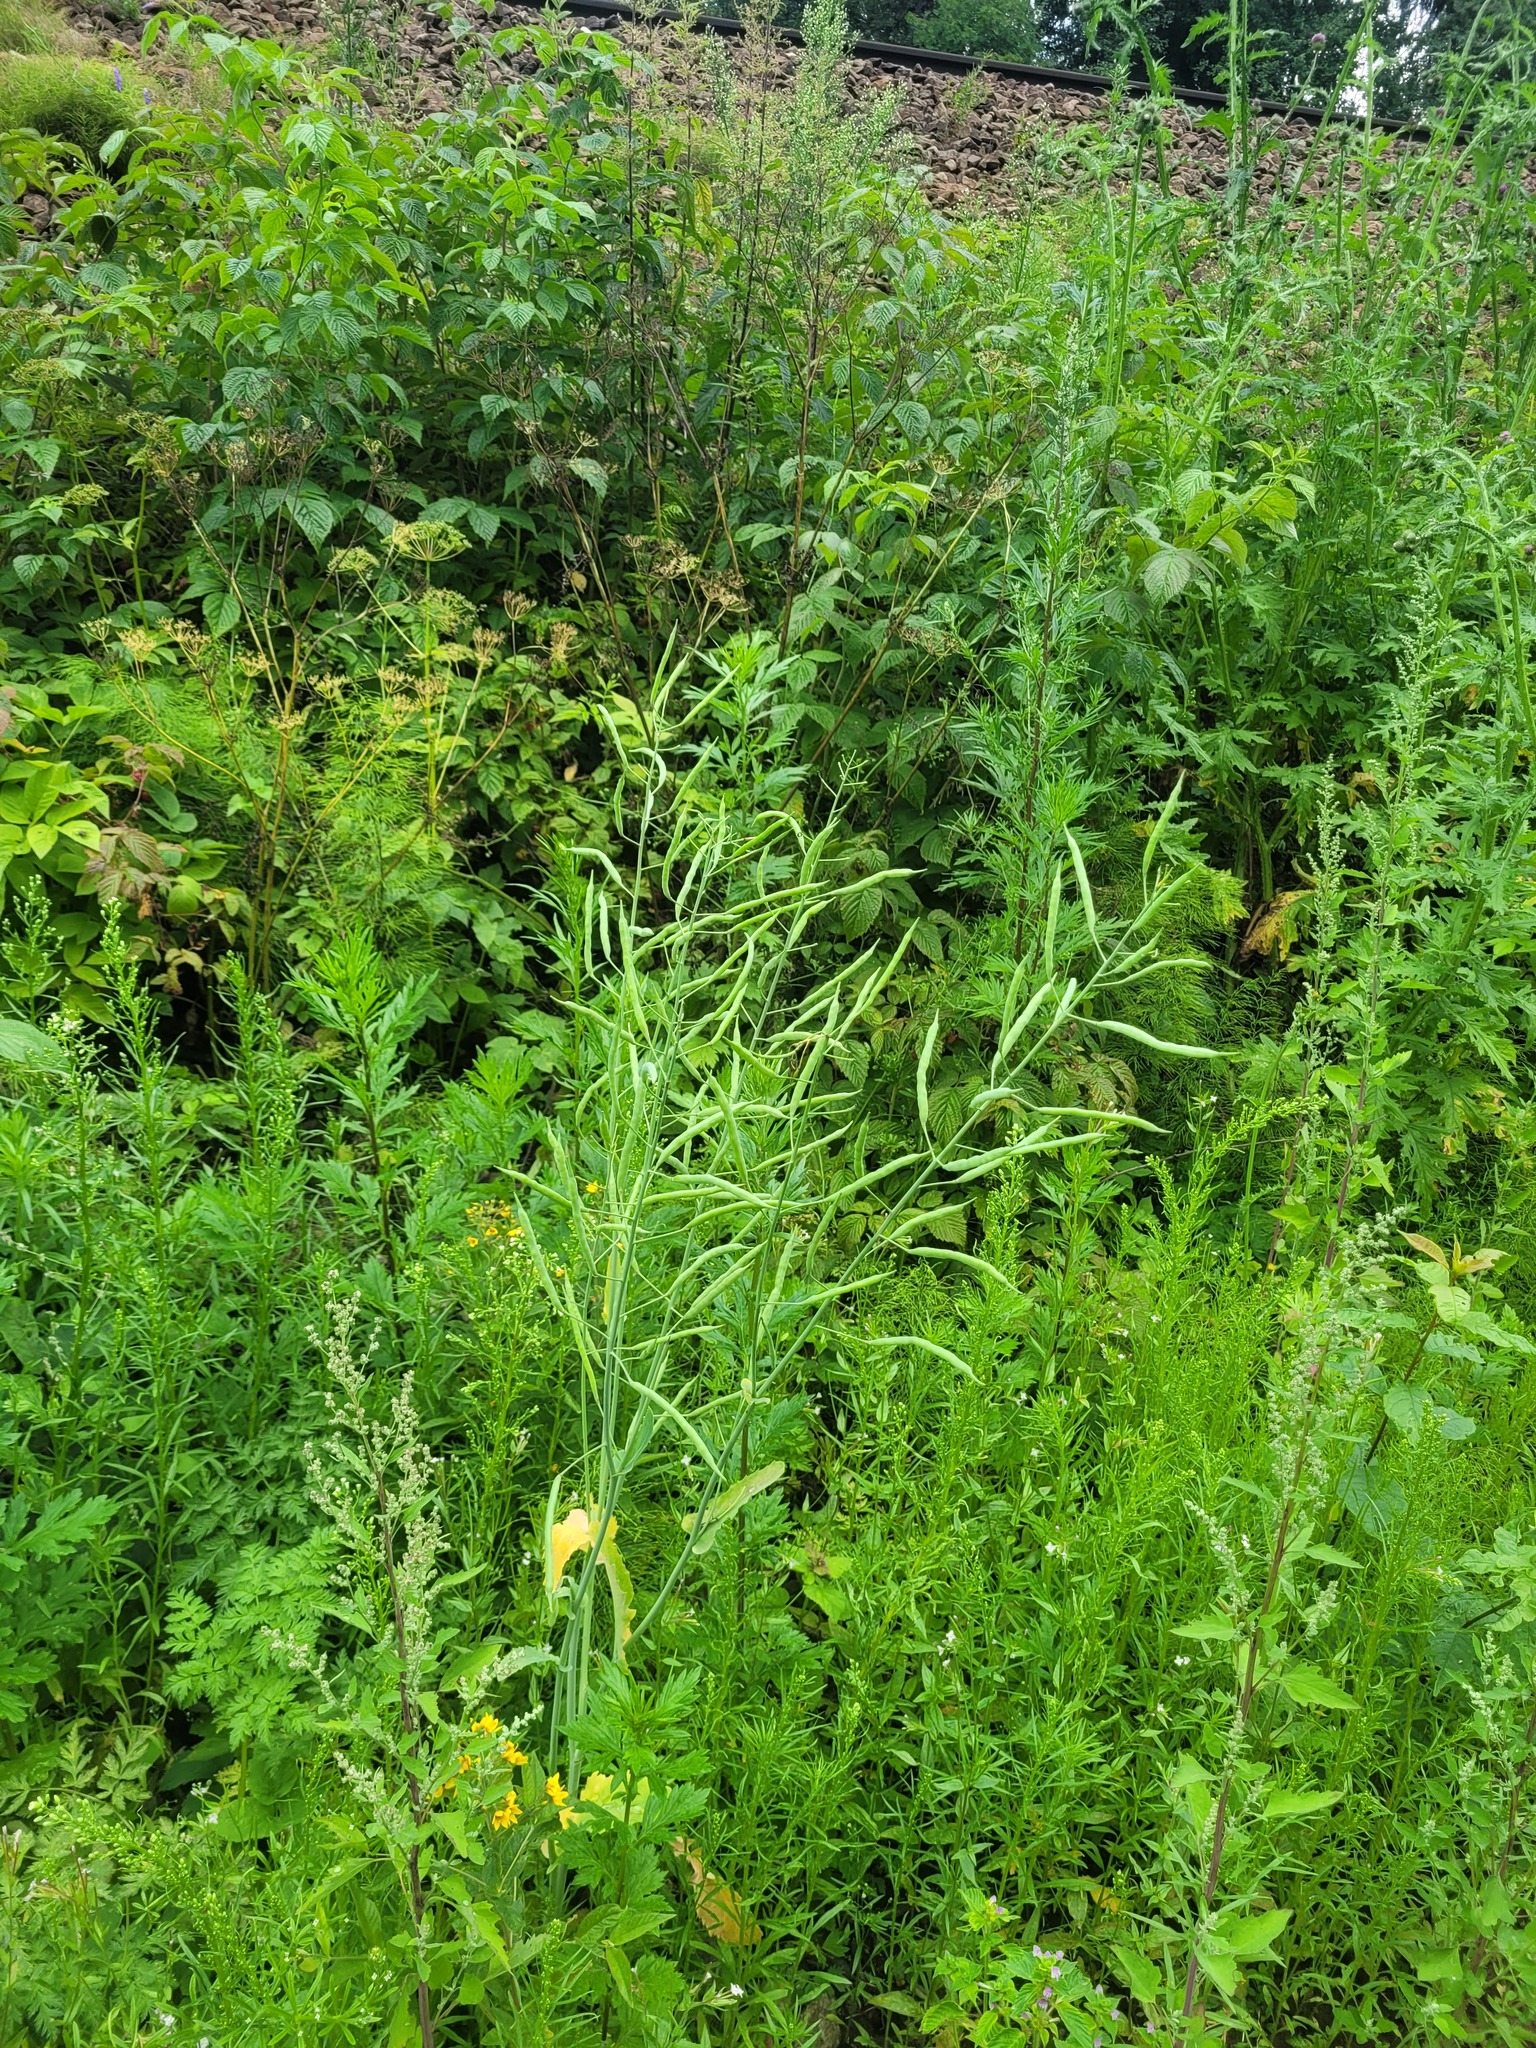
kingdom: Plantae
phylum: Tracheophyta
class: Magnoliopsida
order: Brassicales
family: Brassicaceae
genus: Brassica
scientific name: Brassica napus
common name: Rape
